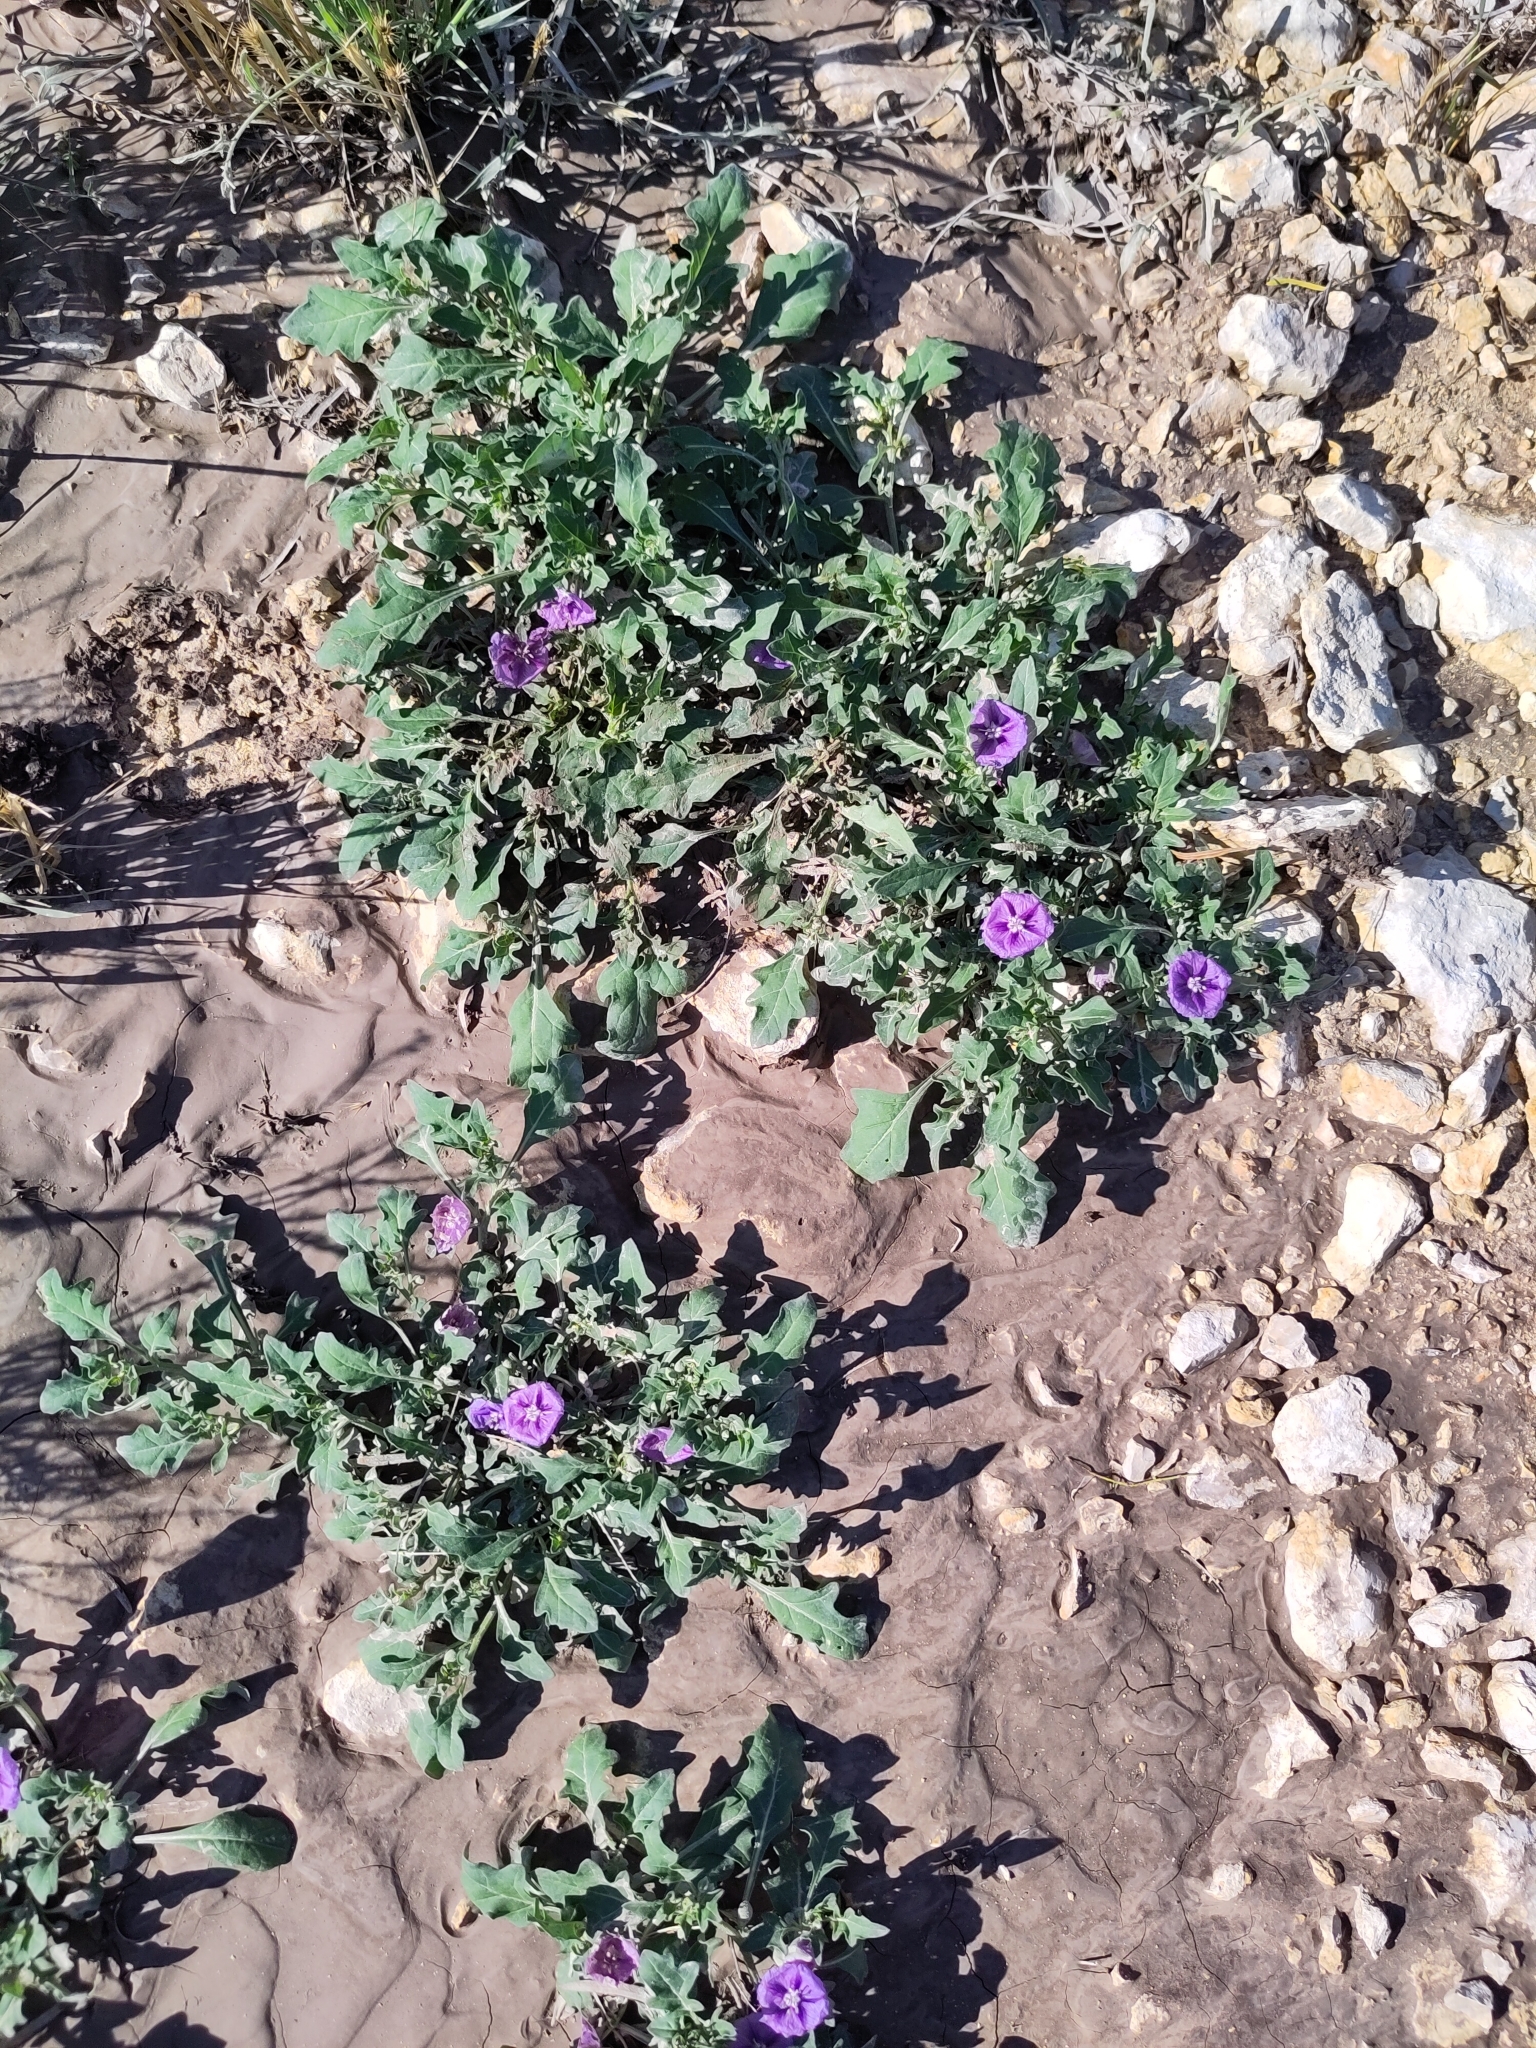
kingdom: Plantae
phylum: Tracheophyta
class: Magnoliopsida
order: Solanales
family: Solanaceae
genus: Quincula
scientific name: Quincula lobata
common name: Purple-ground-cherry
